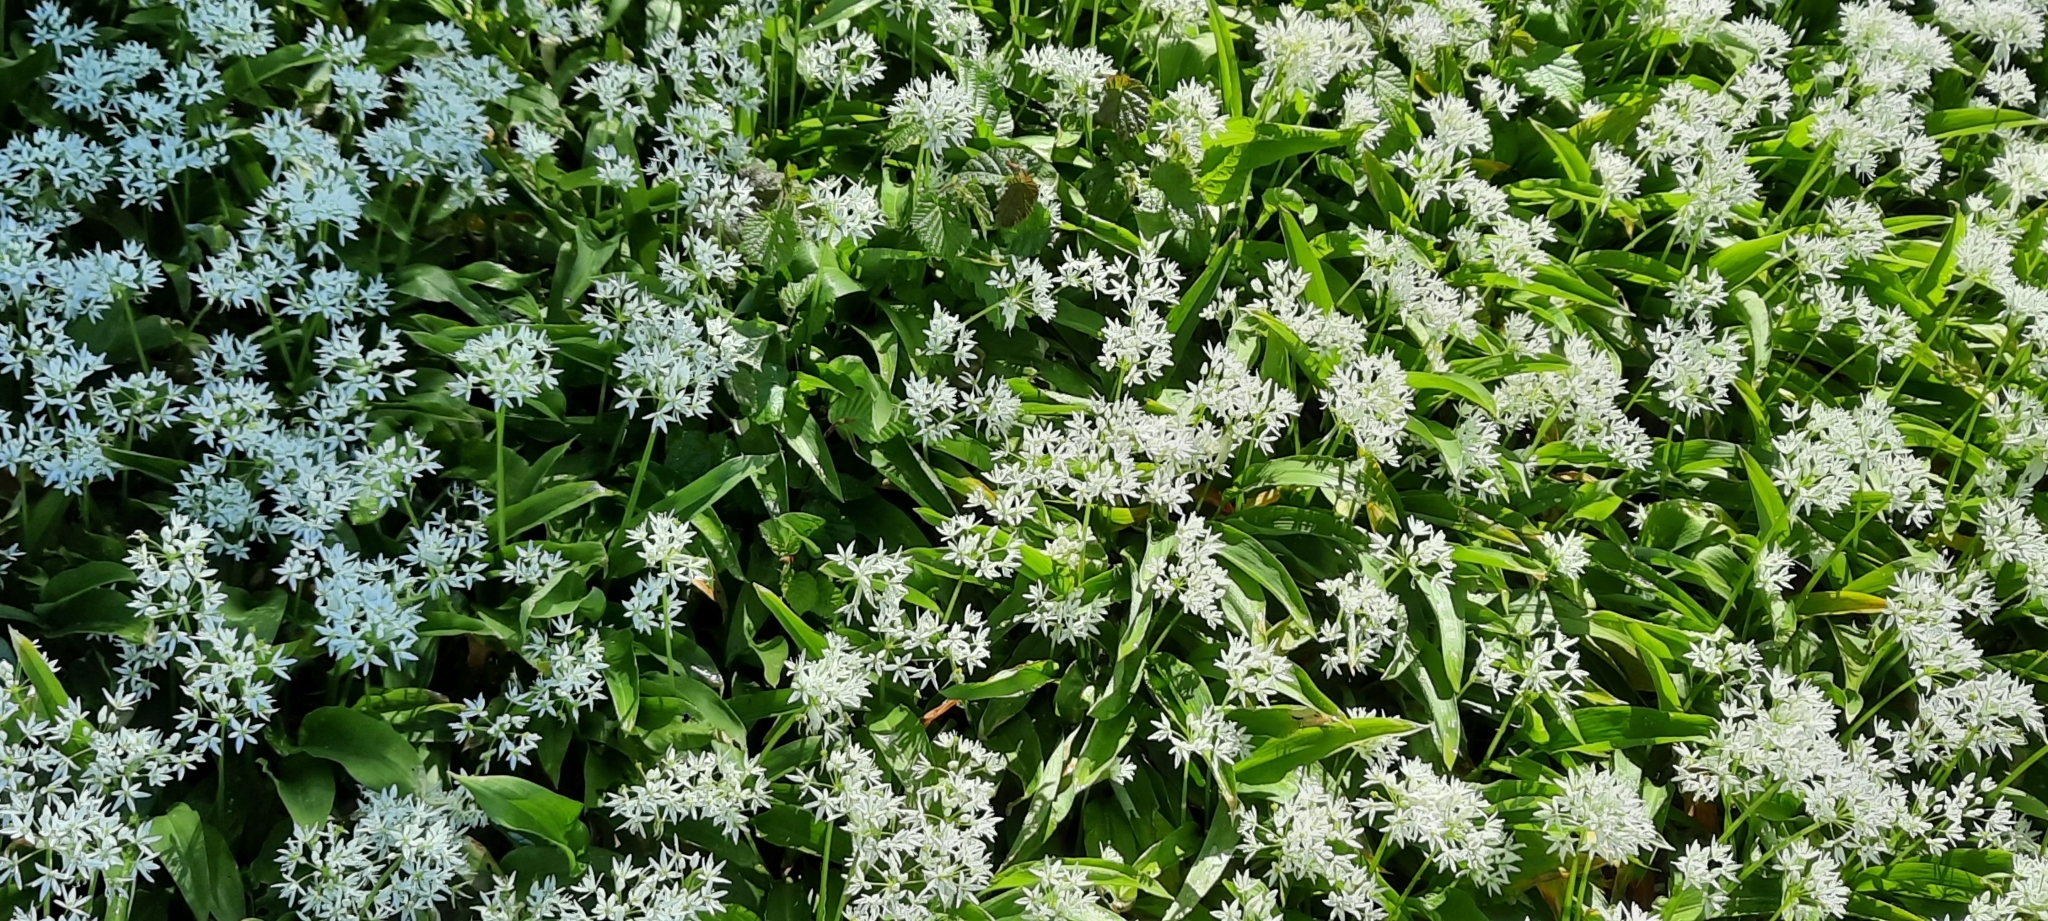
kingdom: Plantae
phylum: Tracheophyta
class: Liliopsida
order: Asparagales
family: Amaryllidaceae
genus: Allium
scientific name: Allium ursinum
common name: Ramsons
